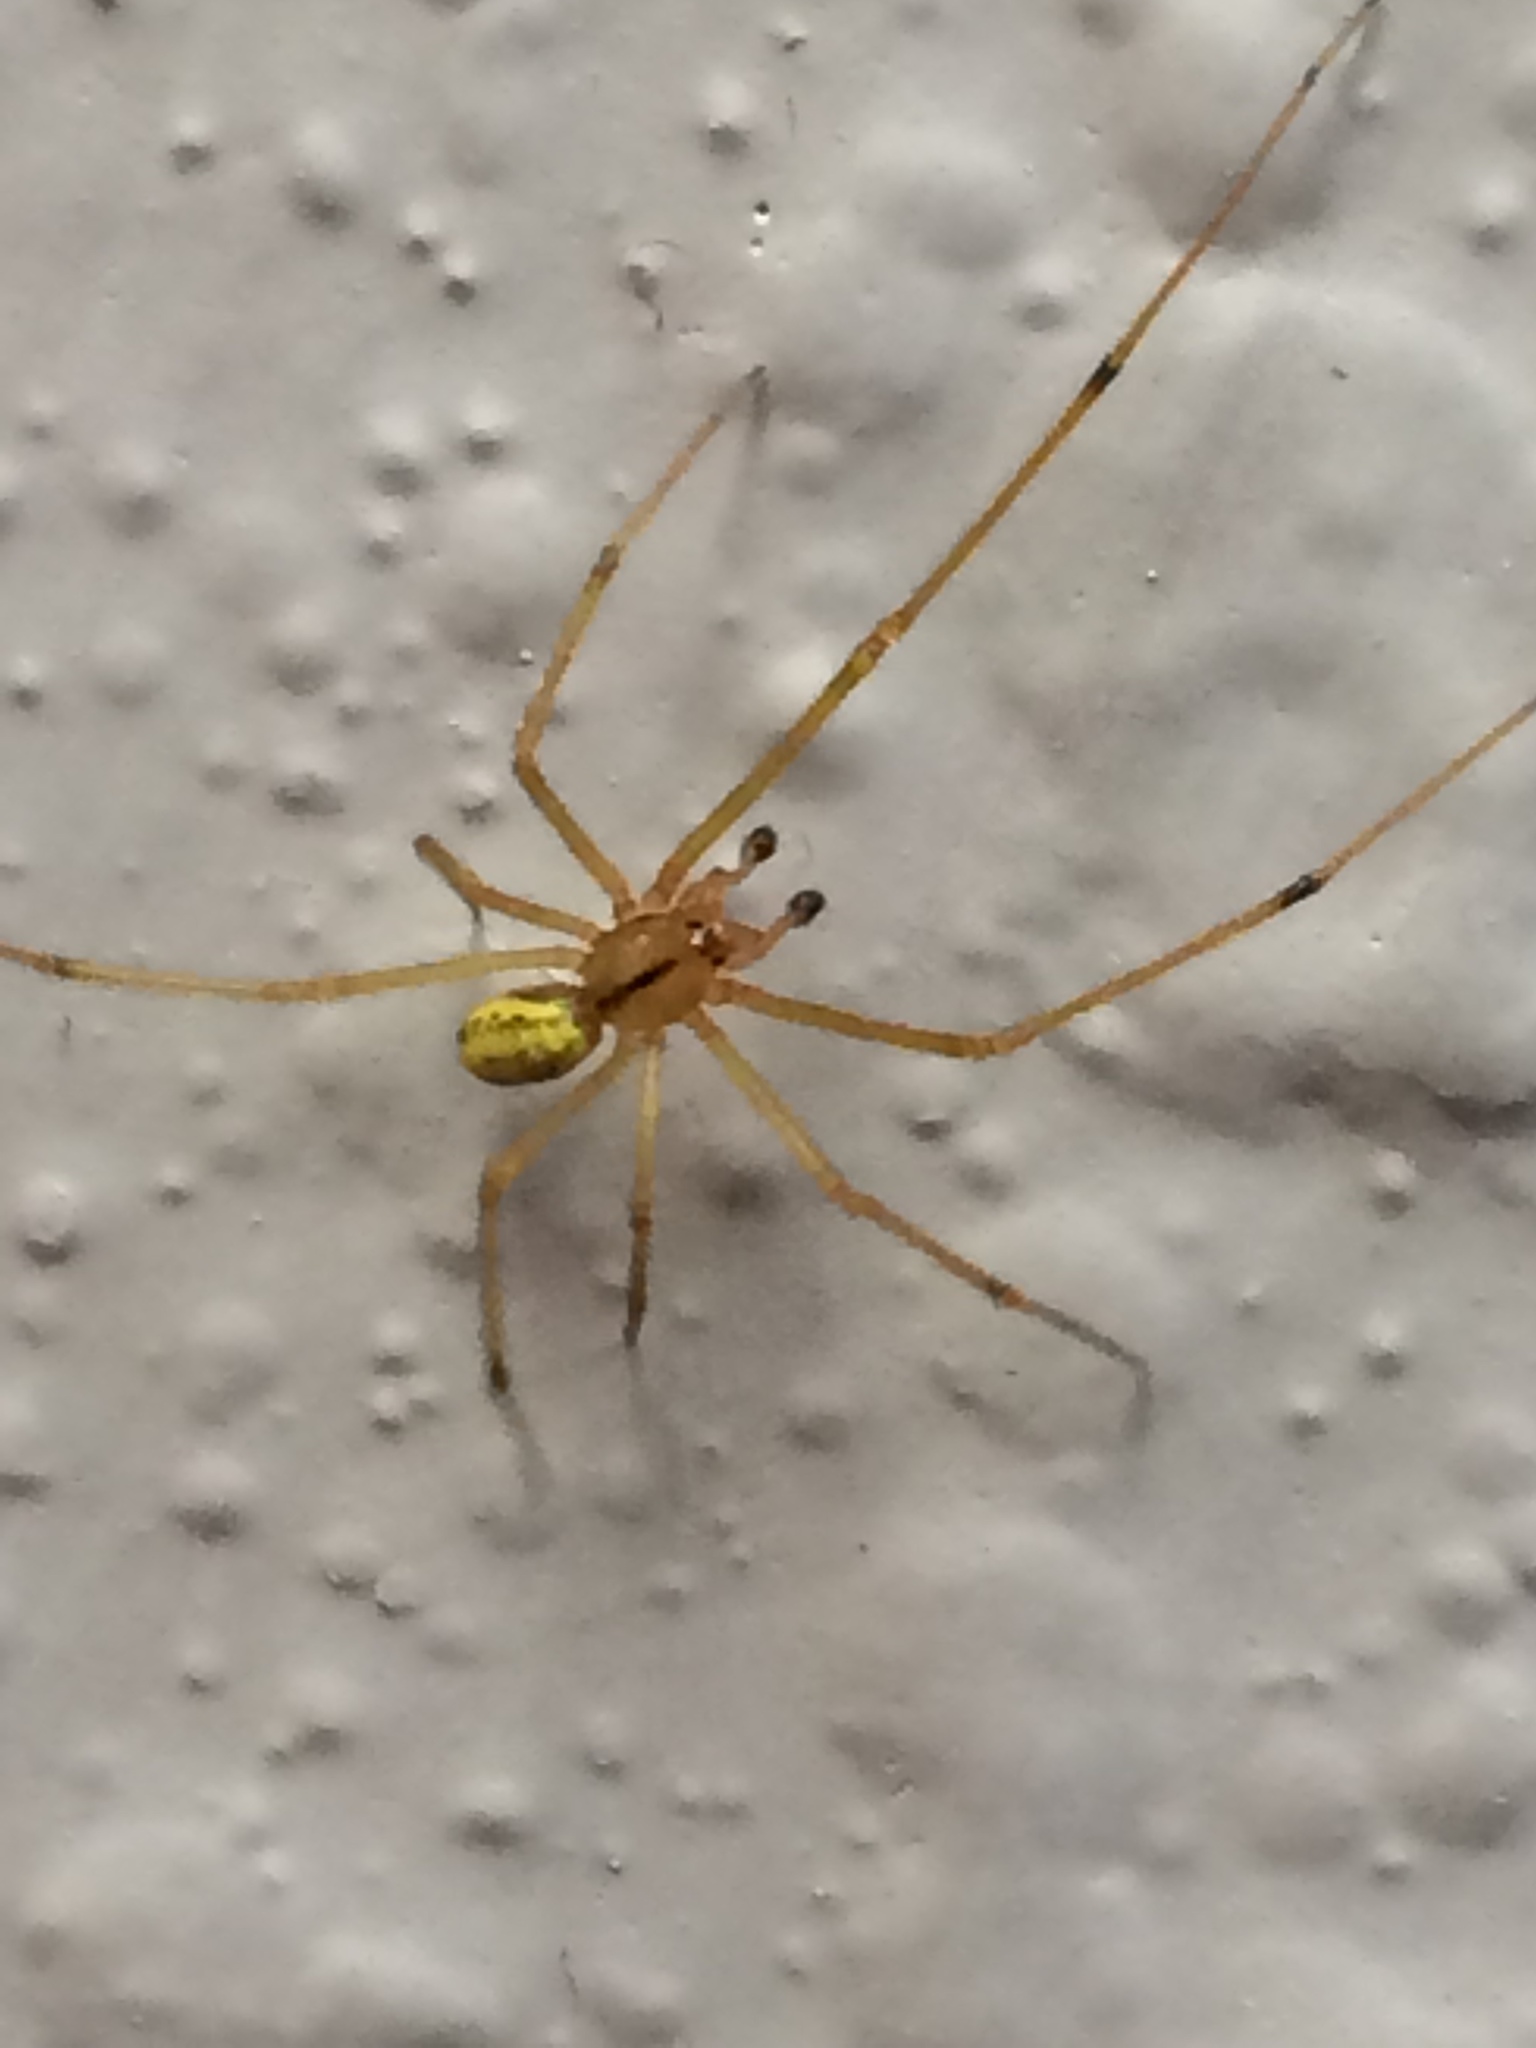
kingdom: Animalia
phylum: Arthropoda
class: Arachnida
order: Araneae
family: Theridiidae
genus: Enoplognatha
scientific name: Enoplognatha ovata
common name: Common candy-striped spider
